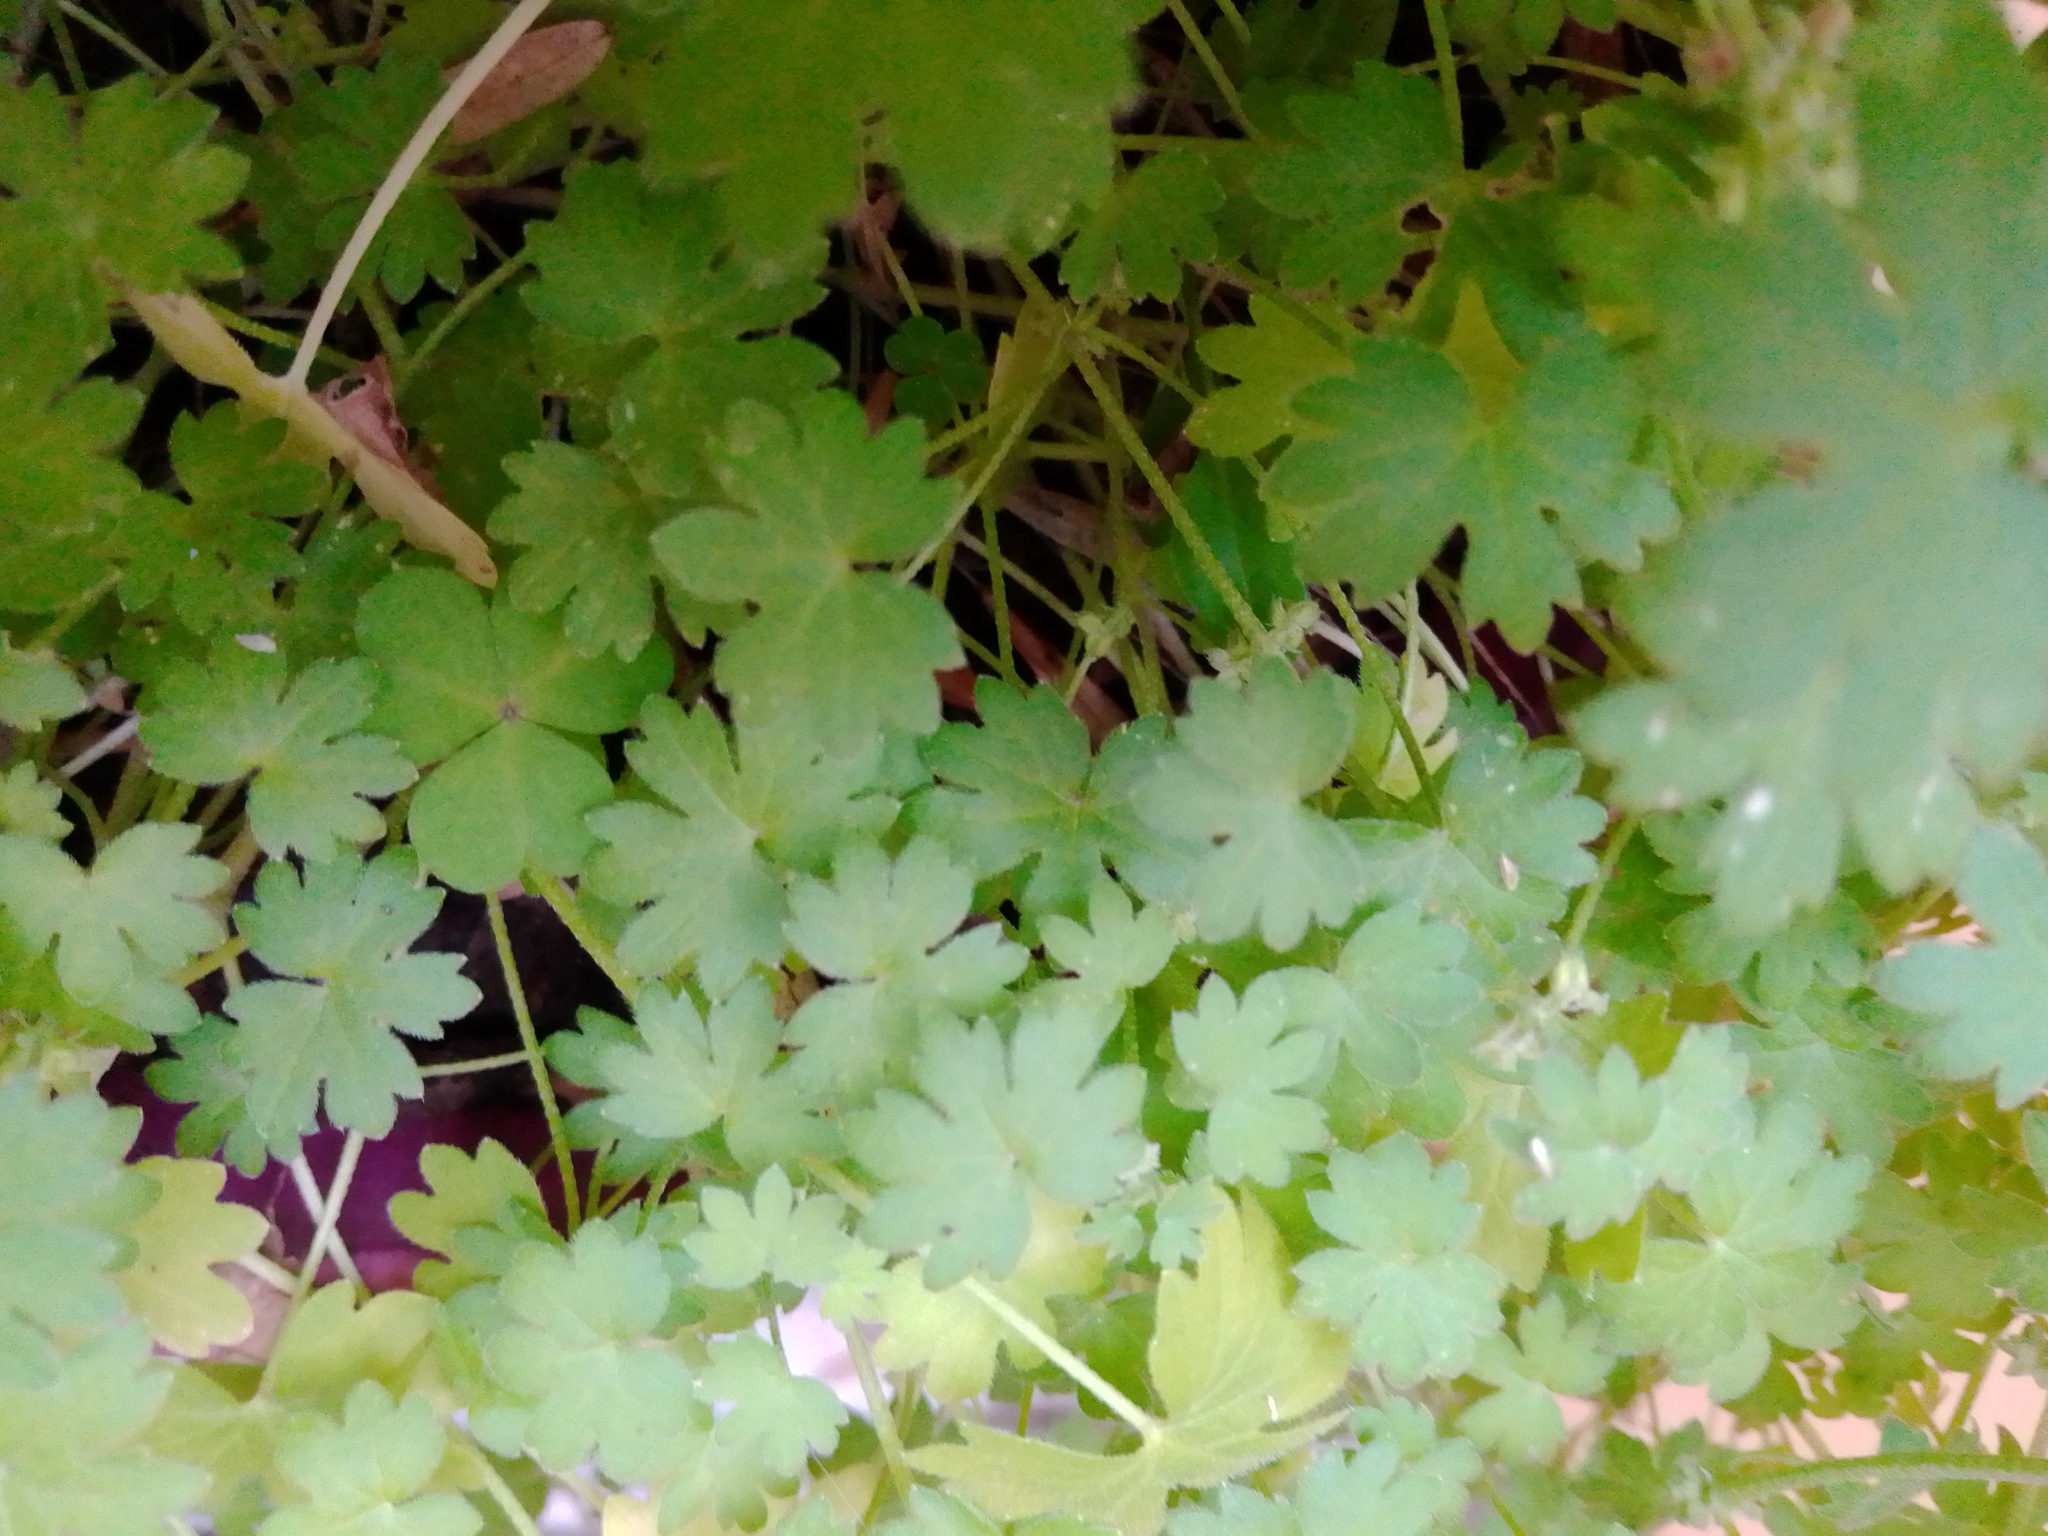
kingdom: Plantae
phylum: Tracheophyta
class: Magnoliopsida
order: Apiales
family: Apiaceae
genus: Bowlesia
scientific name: Bowlesia incana
